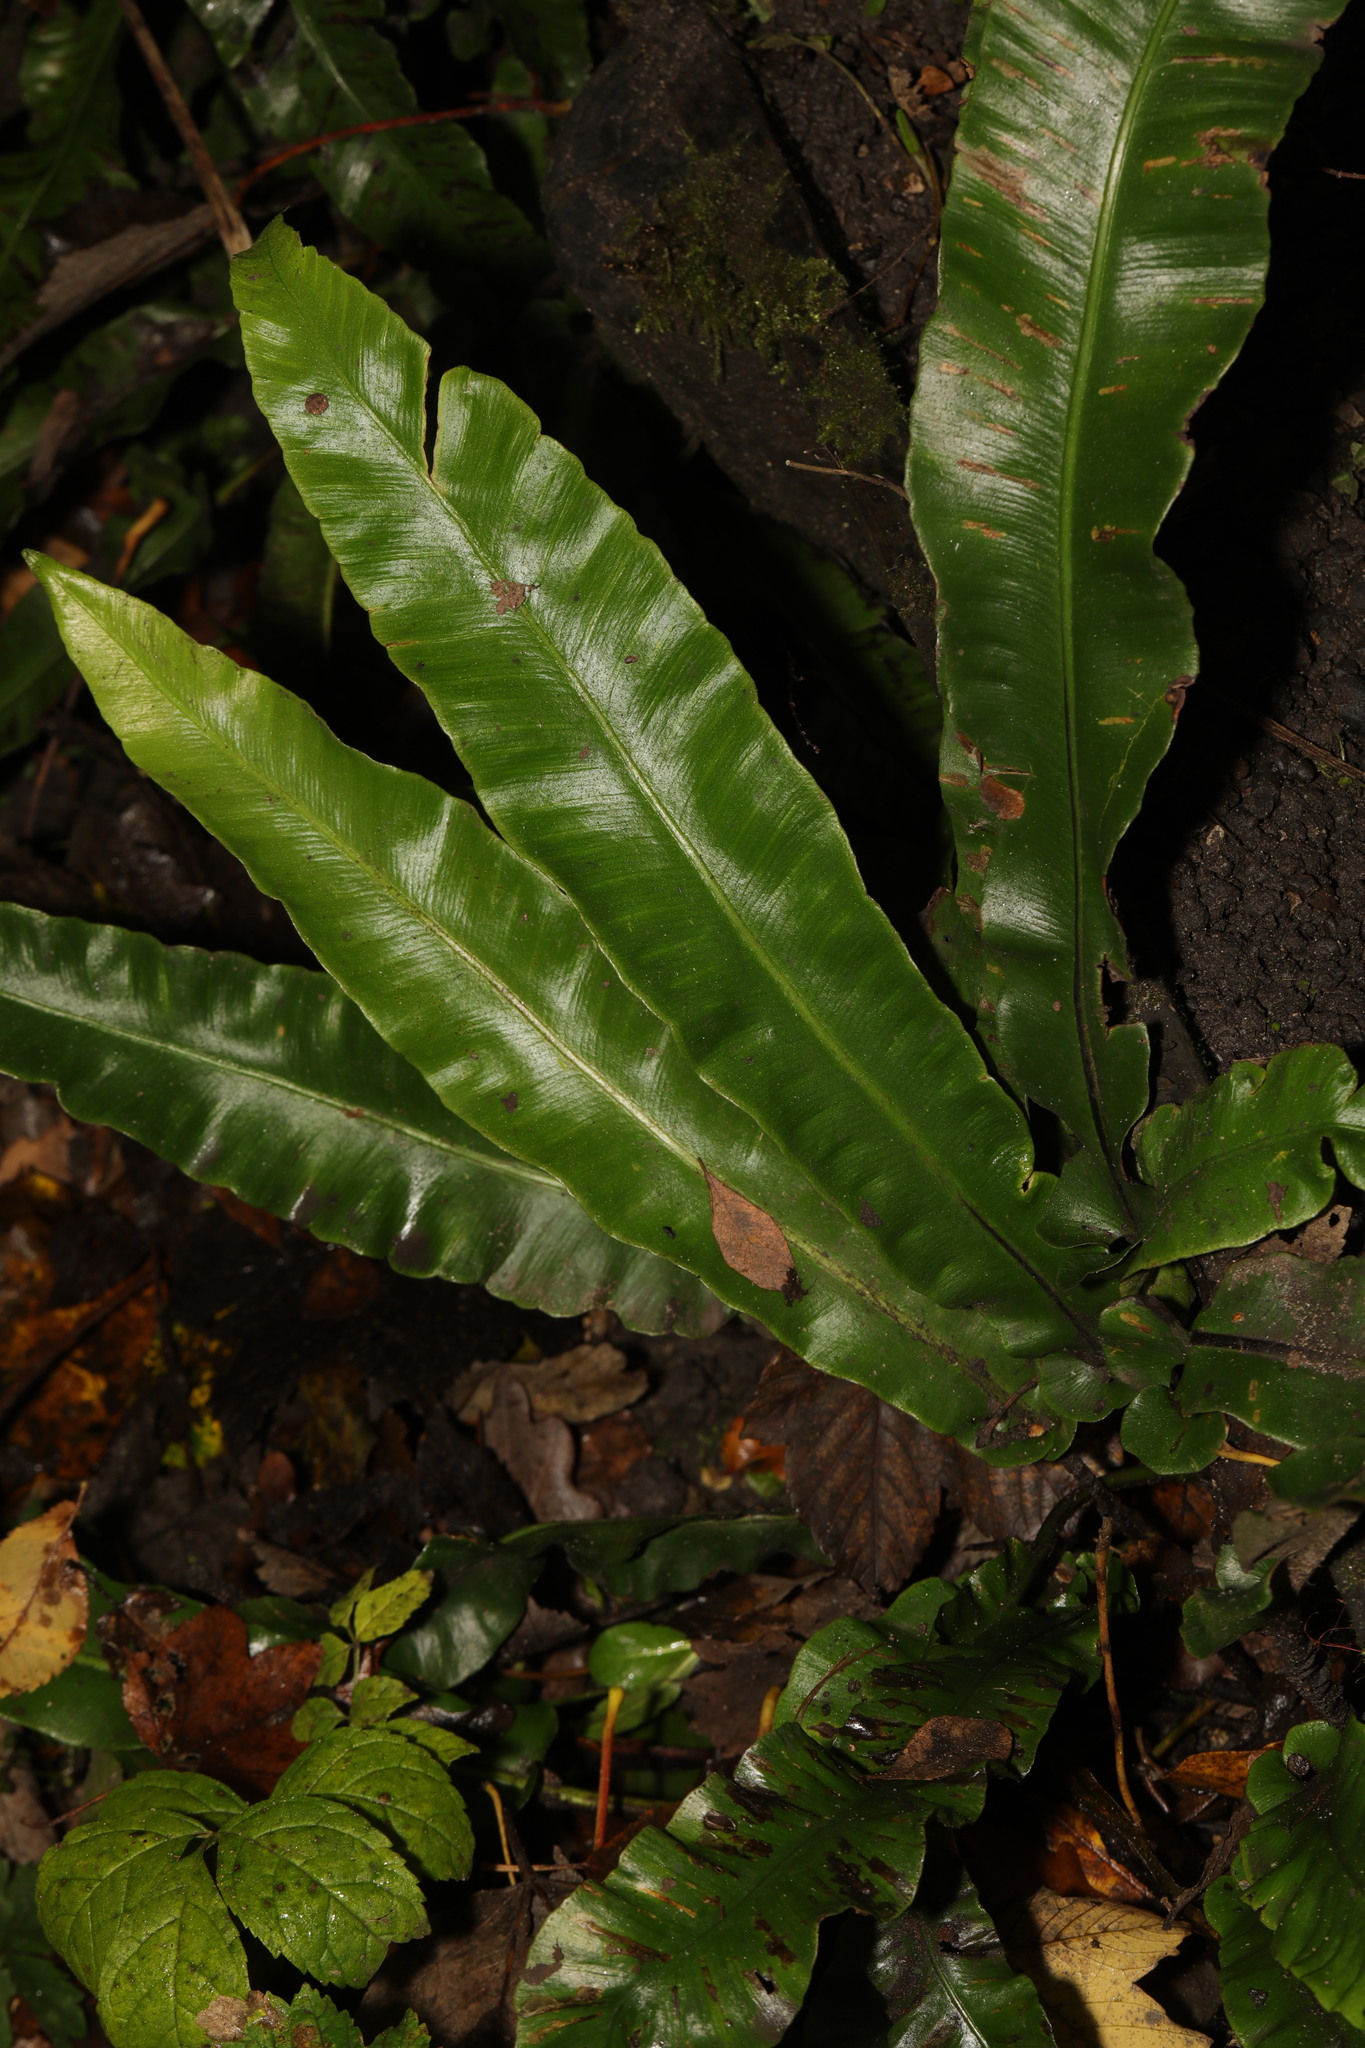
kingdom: Plantae
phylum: Tracheophyta
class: Polypodiopsida
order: Polypodiales
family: Aspleniaceae
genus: Asplenium
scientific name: Asplenium scolopendrium
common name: Hart's-tongue fern
